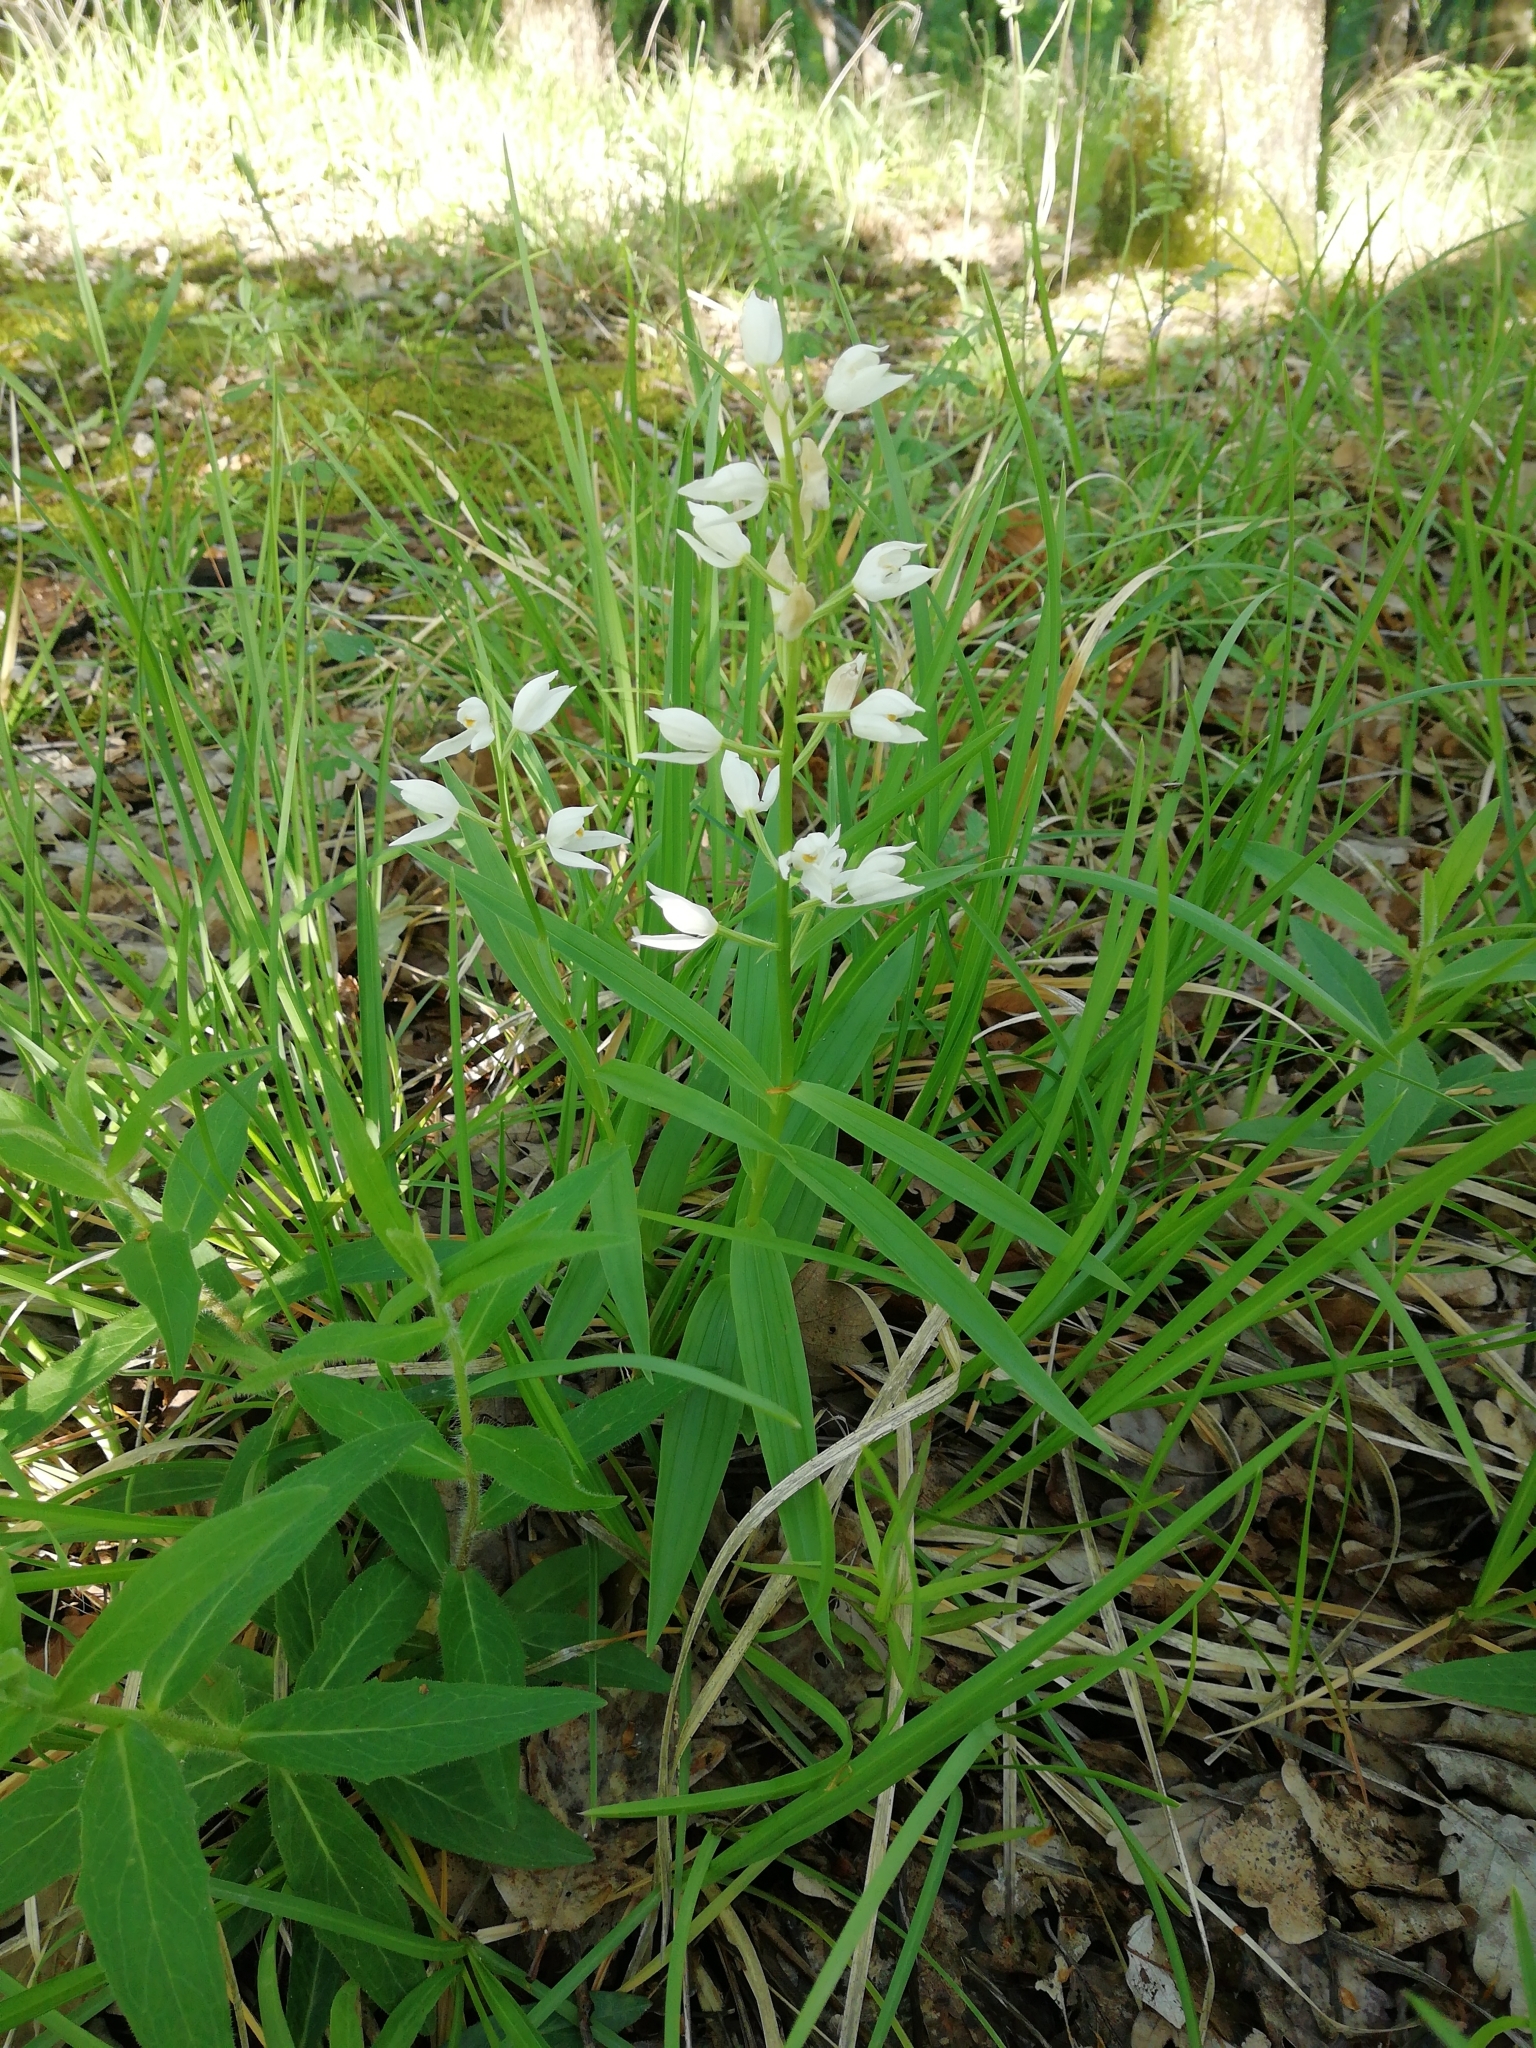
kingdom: Plantae
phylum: Tracheophyta
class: Liliopsida
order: Asparagales
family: Orchidaceae
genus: Cephalanthera
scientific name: Cephalanthera longifolia
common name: Narrow-leaved helleborine
